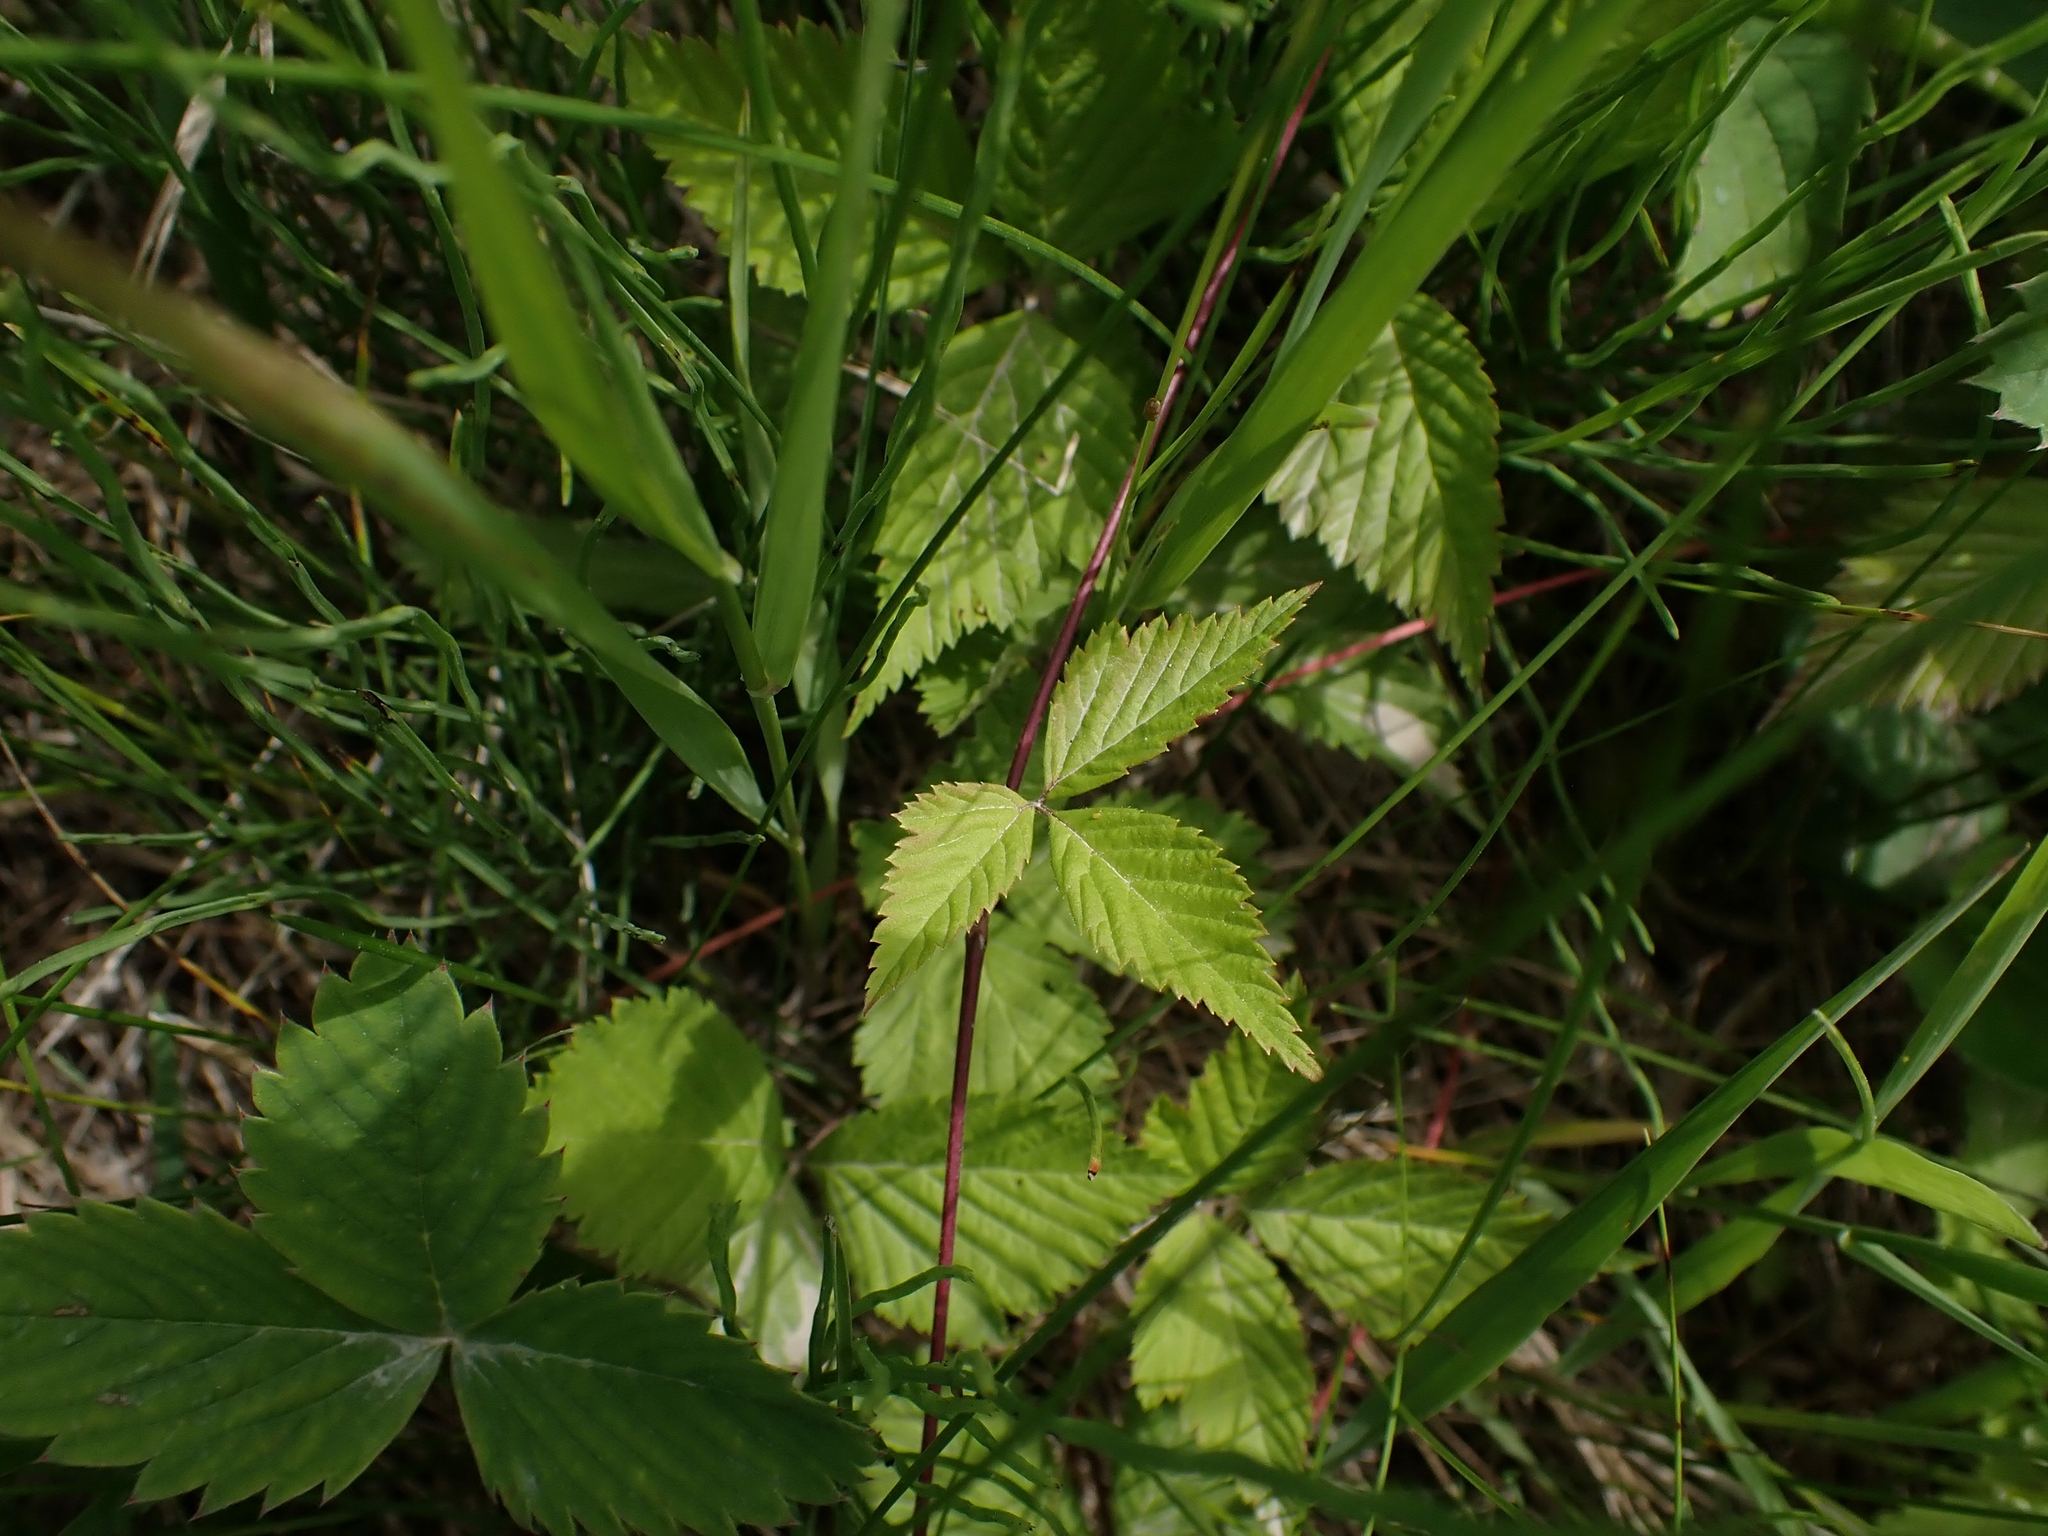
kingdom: Plantae
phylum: Tracheophyta
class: Magnoliopsida
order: Rosales
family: Rosaceae
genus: Rubus
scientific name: Rubus pubescens
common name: Dwarf raspberry
